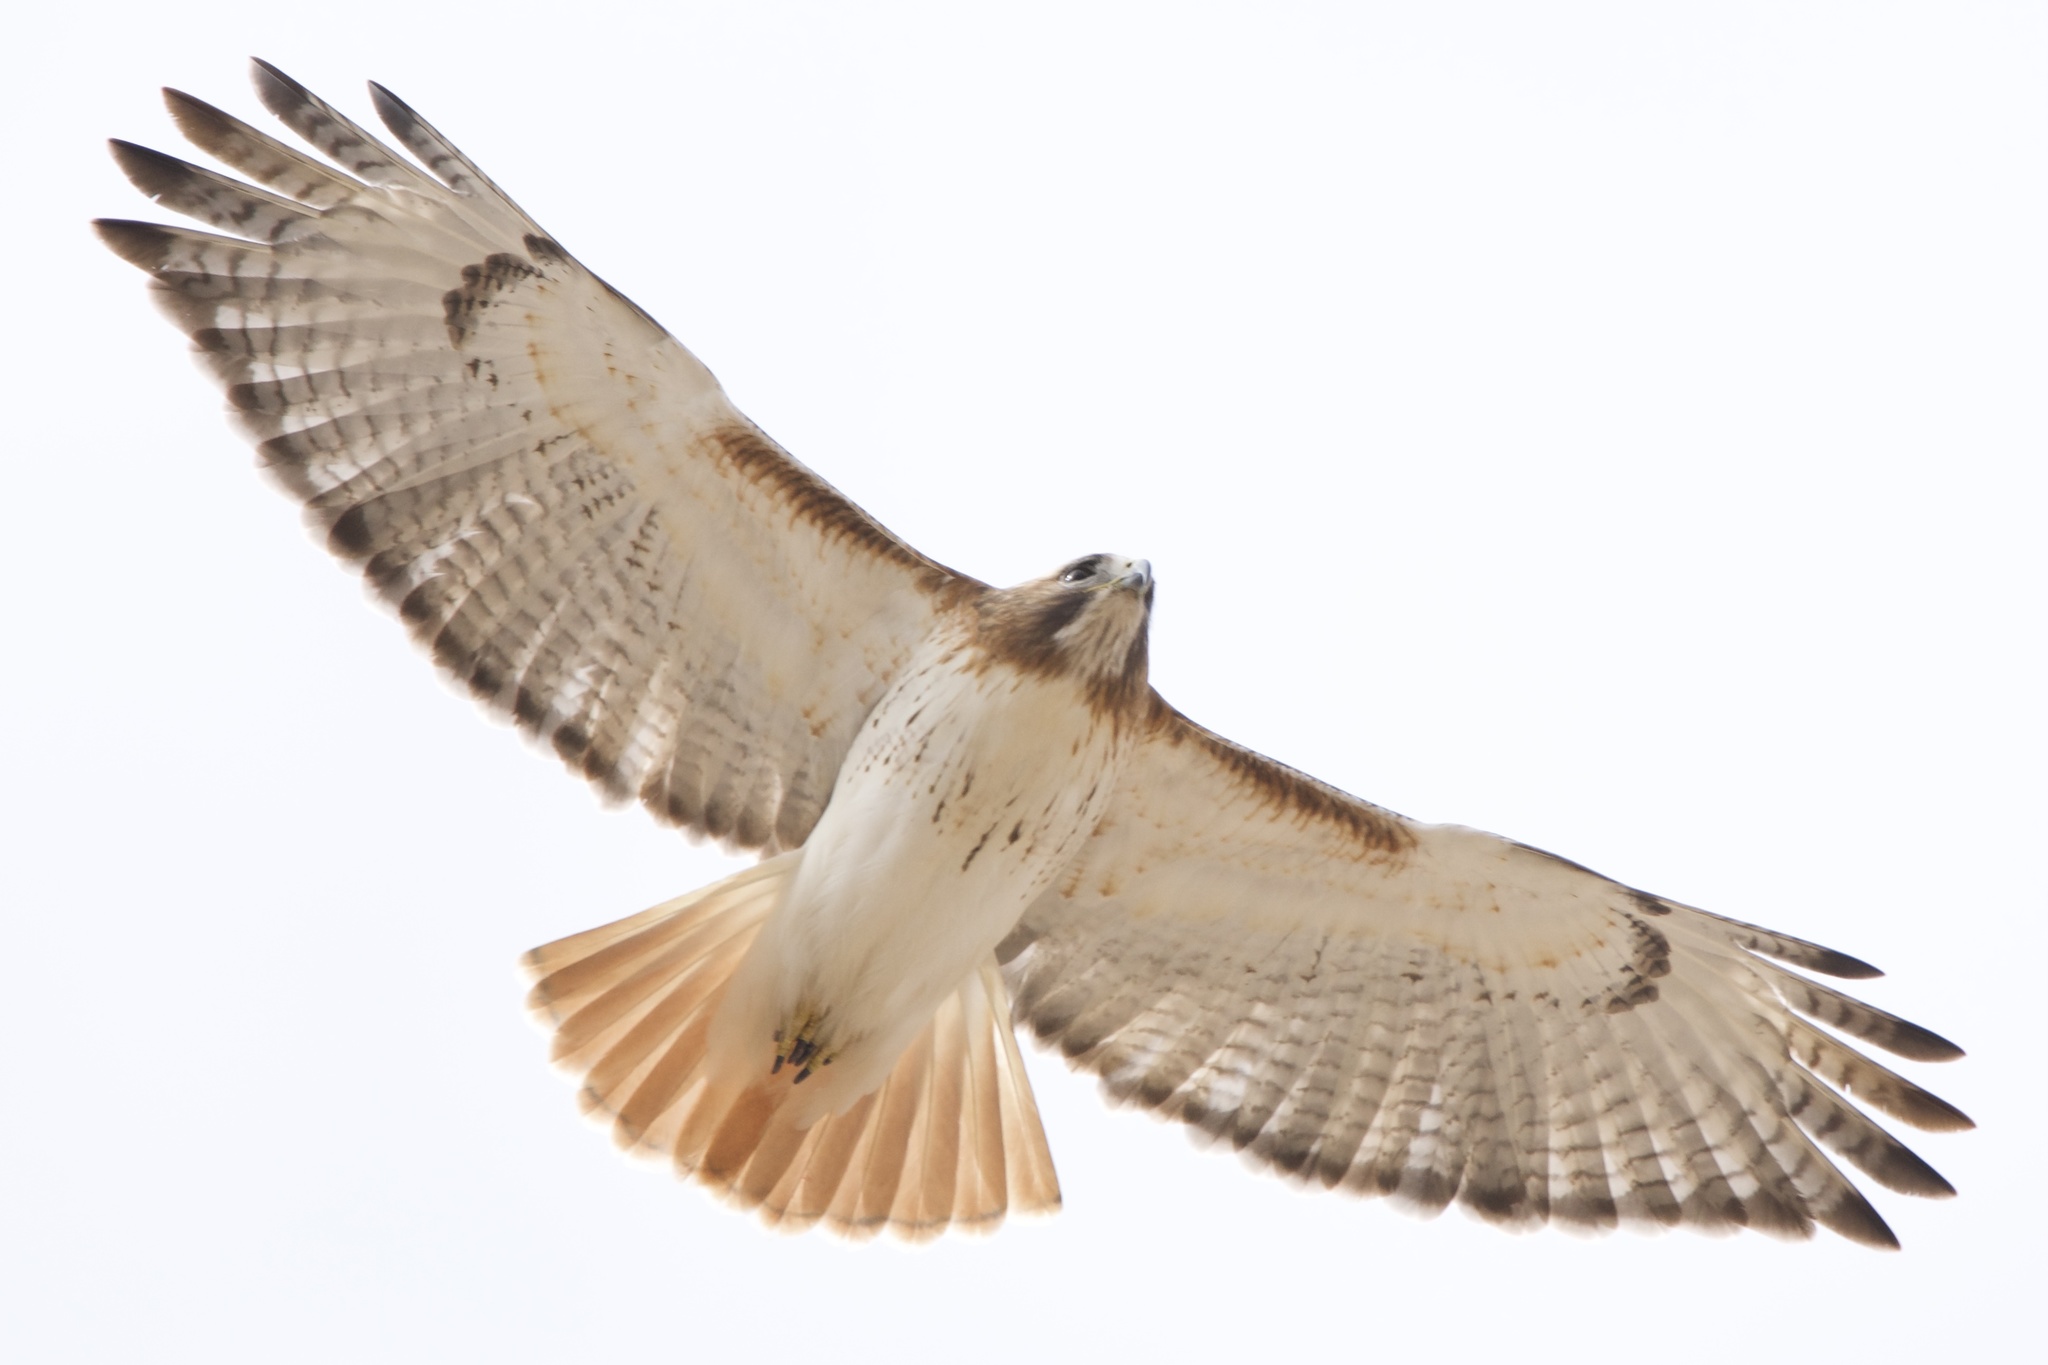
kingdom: Animalia
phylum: Chordata
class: Aves
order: Accipitriformes
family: Accipitridae
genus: Buteo
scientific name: Buteo jamaicensis
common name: Red-tailed hawk
